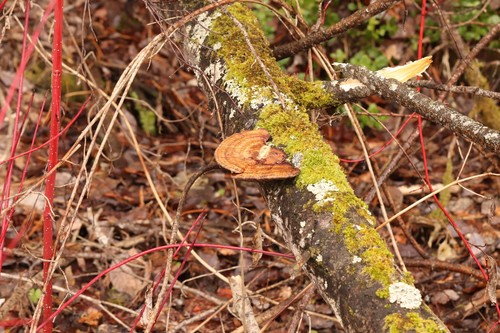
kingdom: Fungi
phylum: Basidiomycota
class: Agaricomycetes
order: Polyporales
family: Polyporaceae
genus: Daedaleopsis
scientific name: Daedaleopsis
